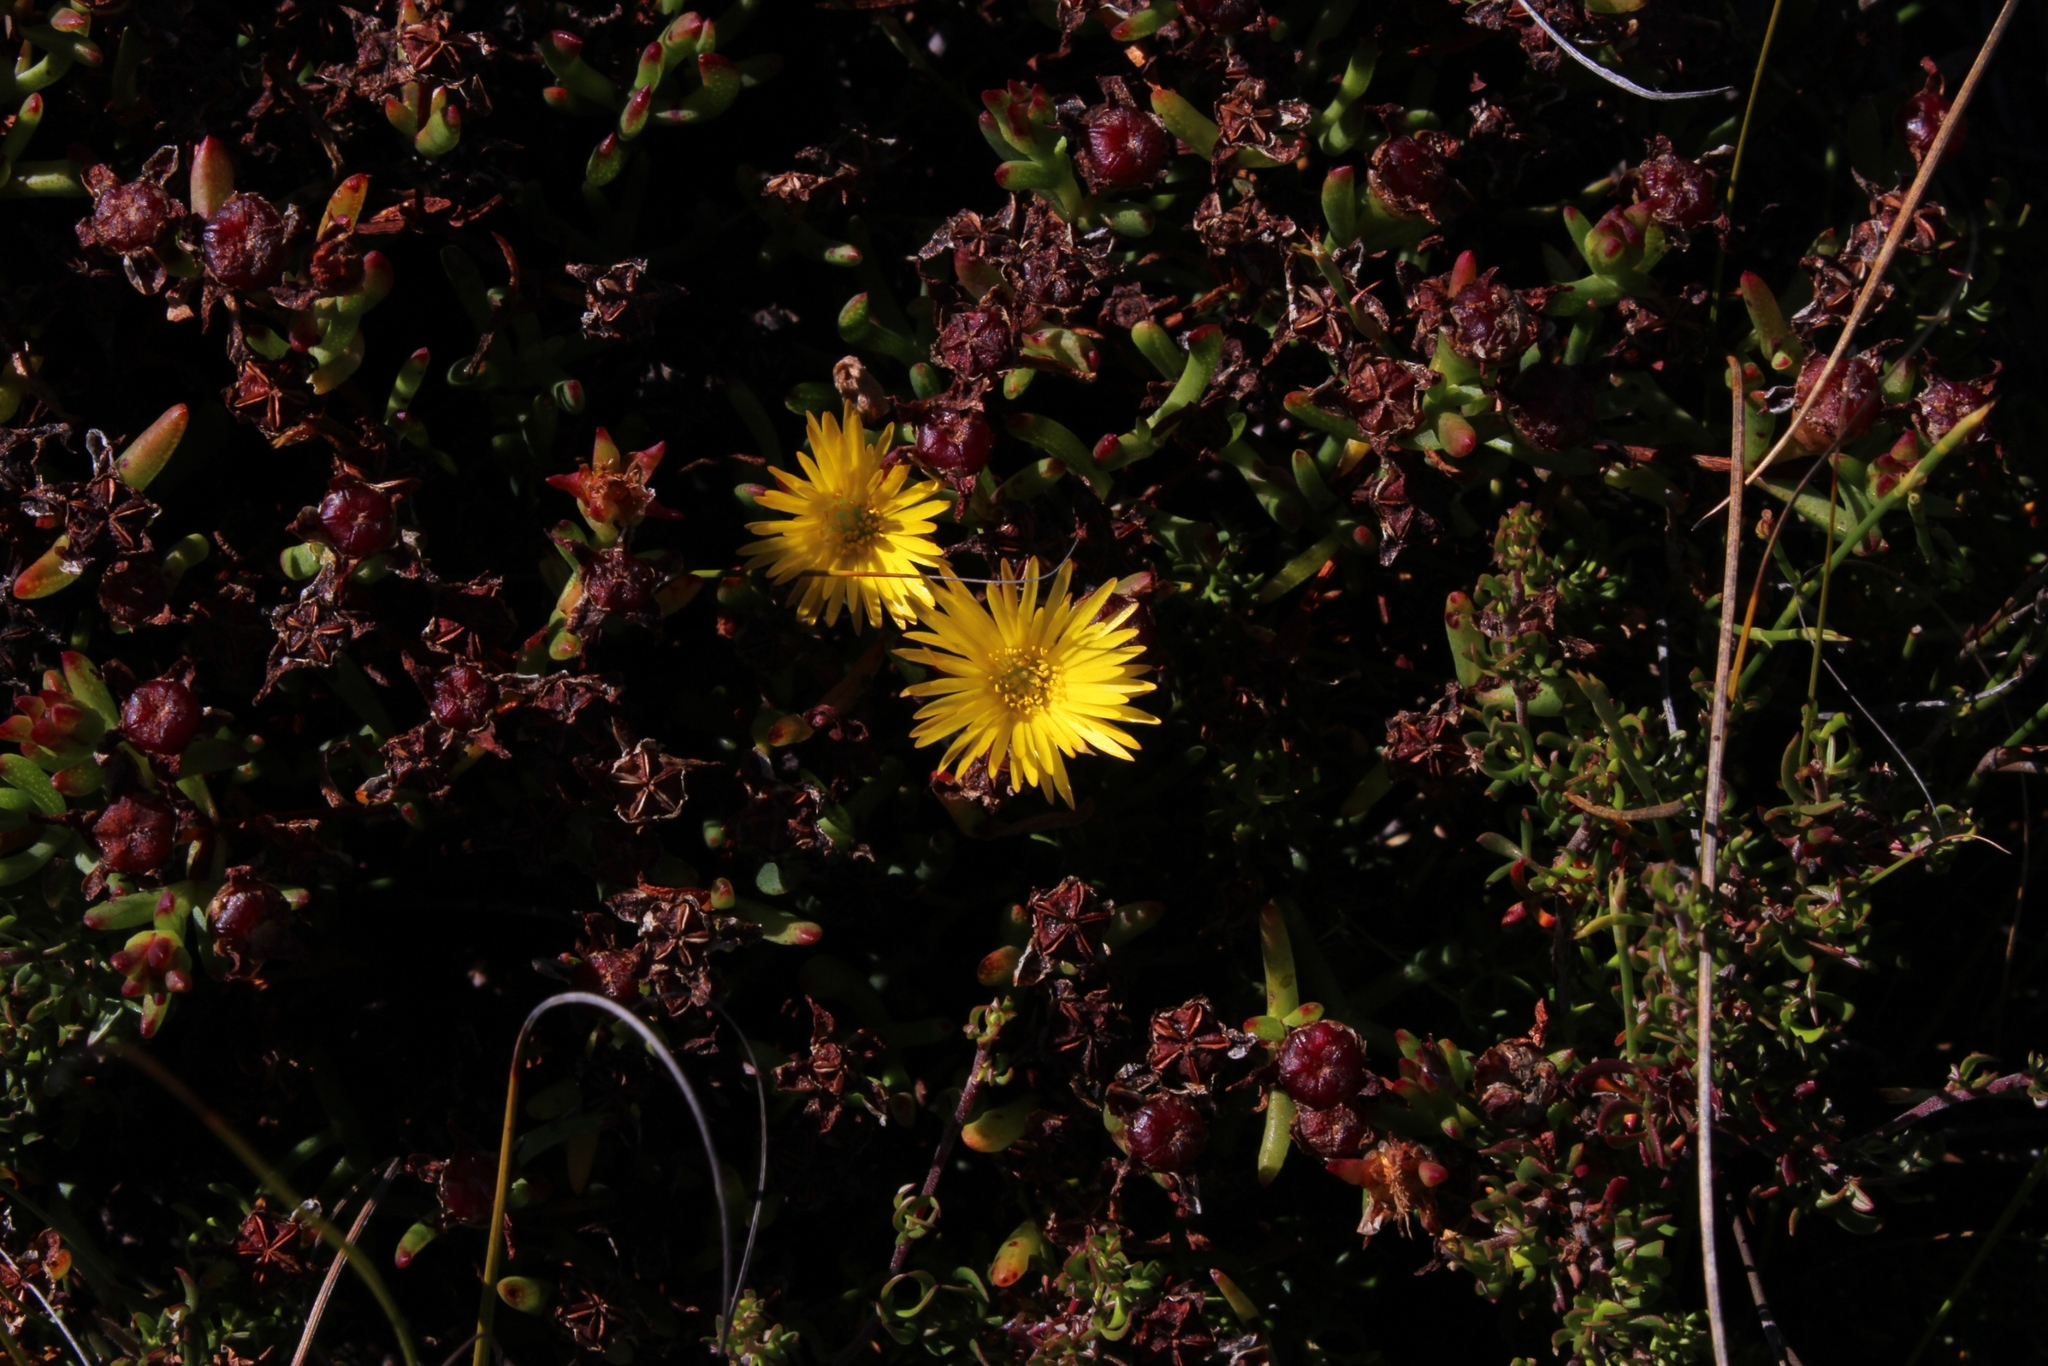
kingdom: Plantae
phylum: Tracheophyta
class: Magnoliopsida
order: Caryophyllales
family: Aizoaceae
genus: Lampranthus
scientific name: Lampranthus promontorii
